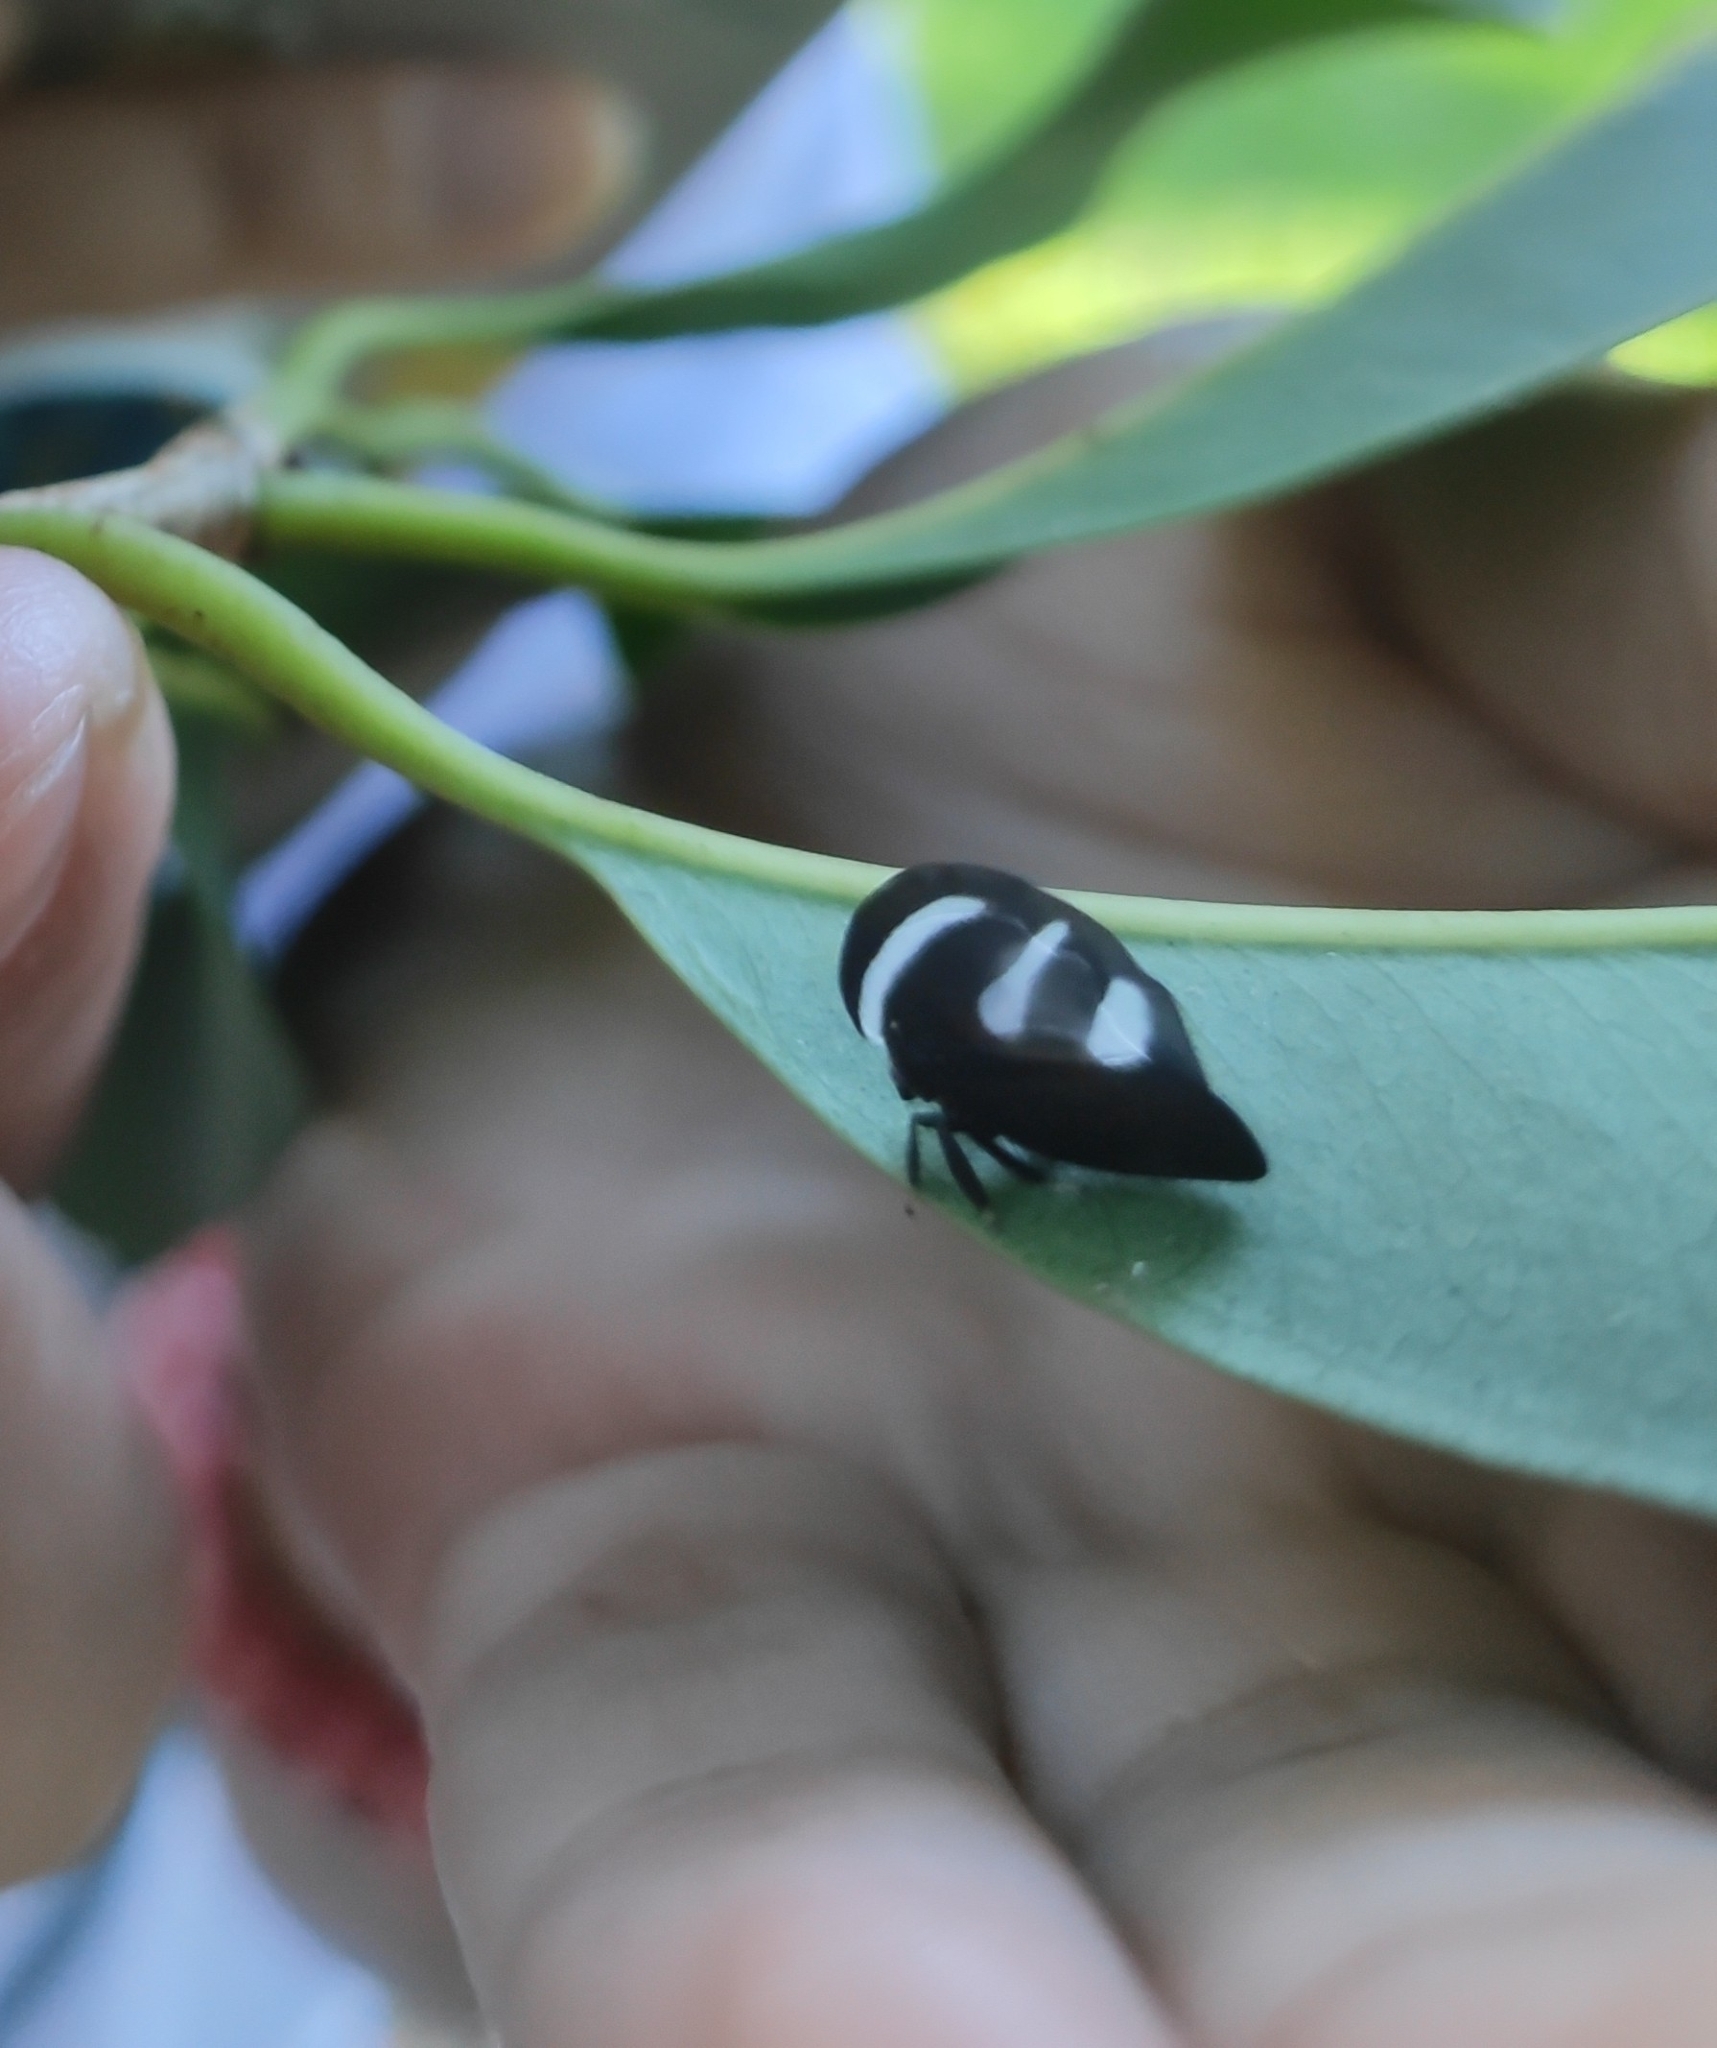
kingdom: Animalia
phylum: Arthropoda
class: Insecta
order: Hemiptera
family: Membracidae
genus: Membracis
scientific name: Membracis
